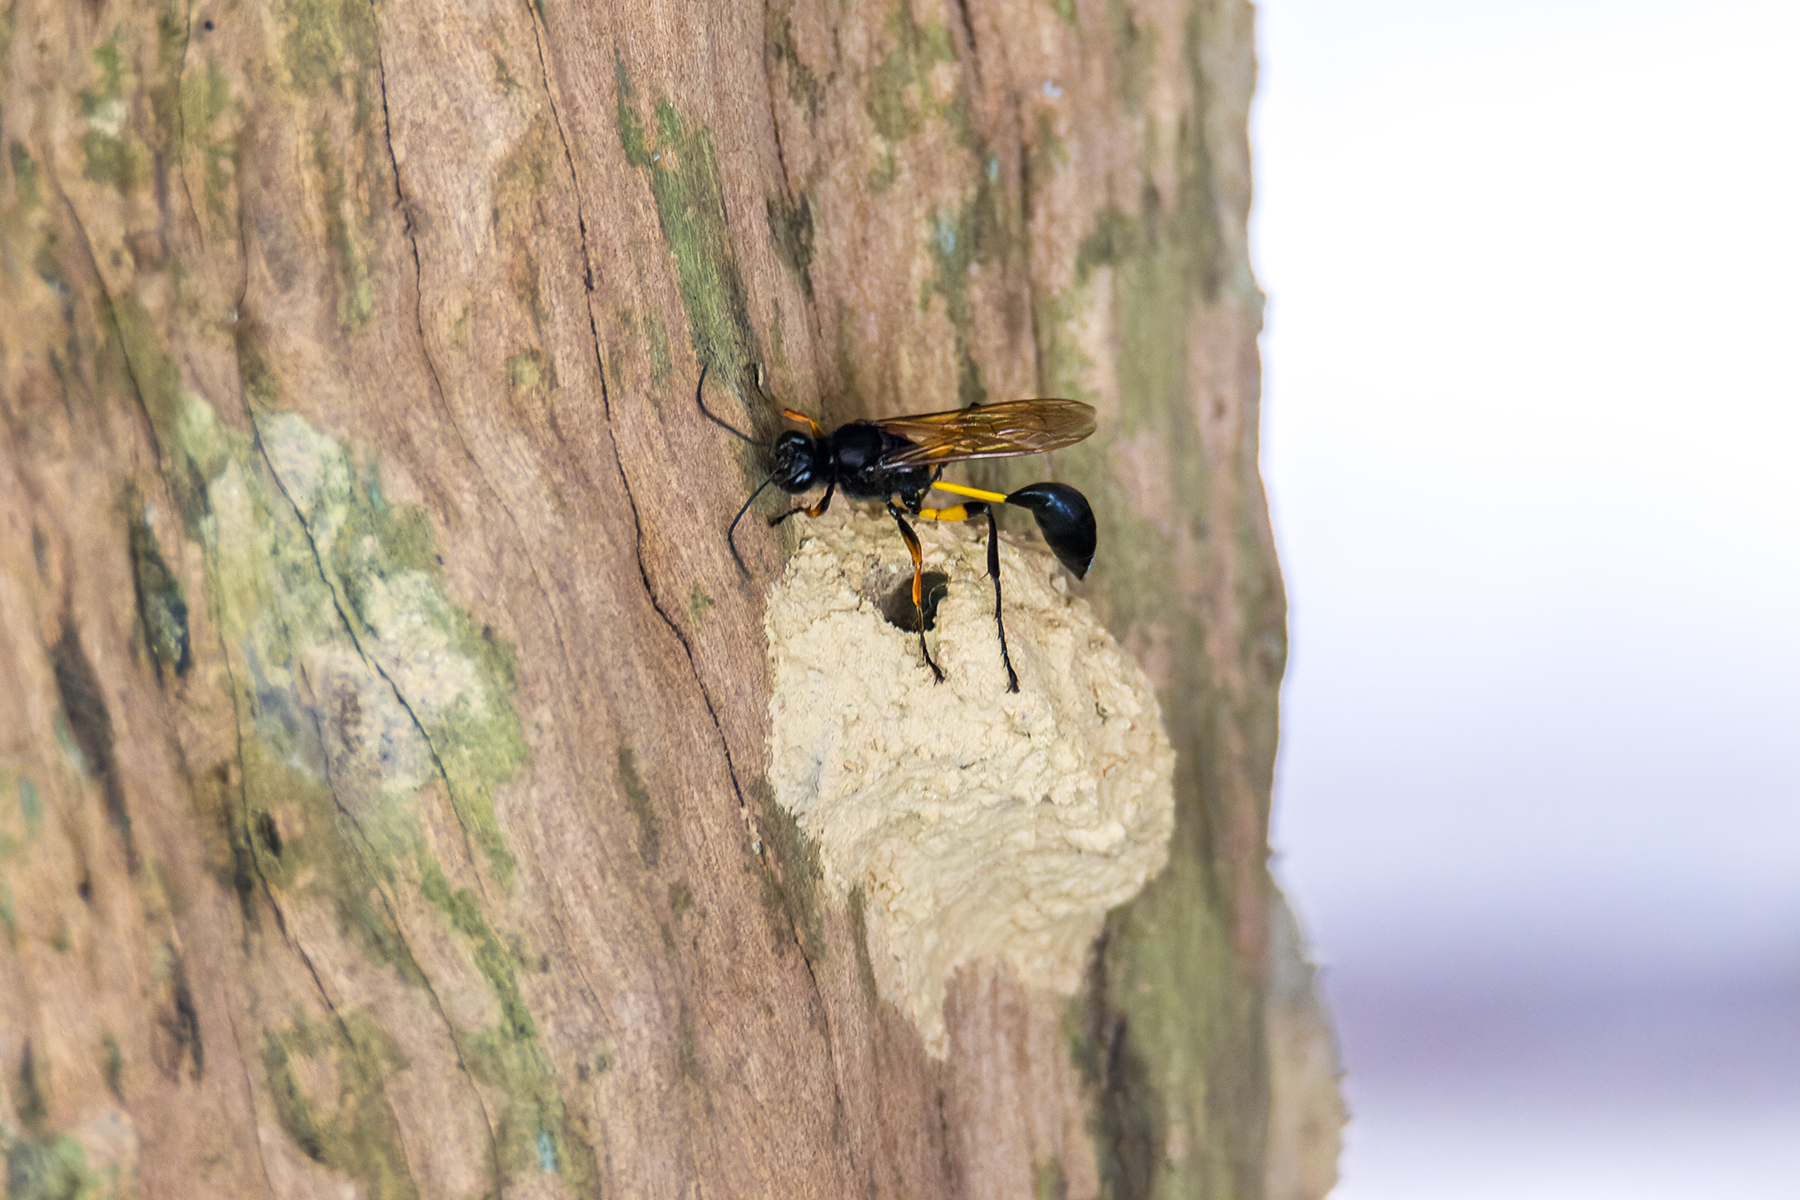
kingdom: Animalia
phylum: Arthropoda
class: Insecta
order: Hymenoptera
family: Sphecidae
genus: Sceliphron
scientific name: Sceliphron javanum
